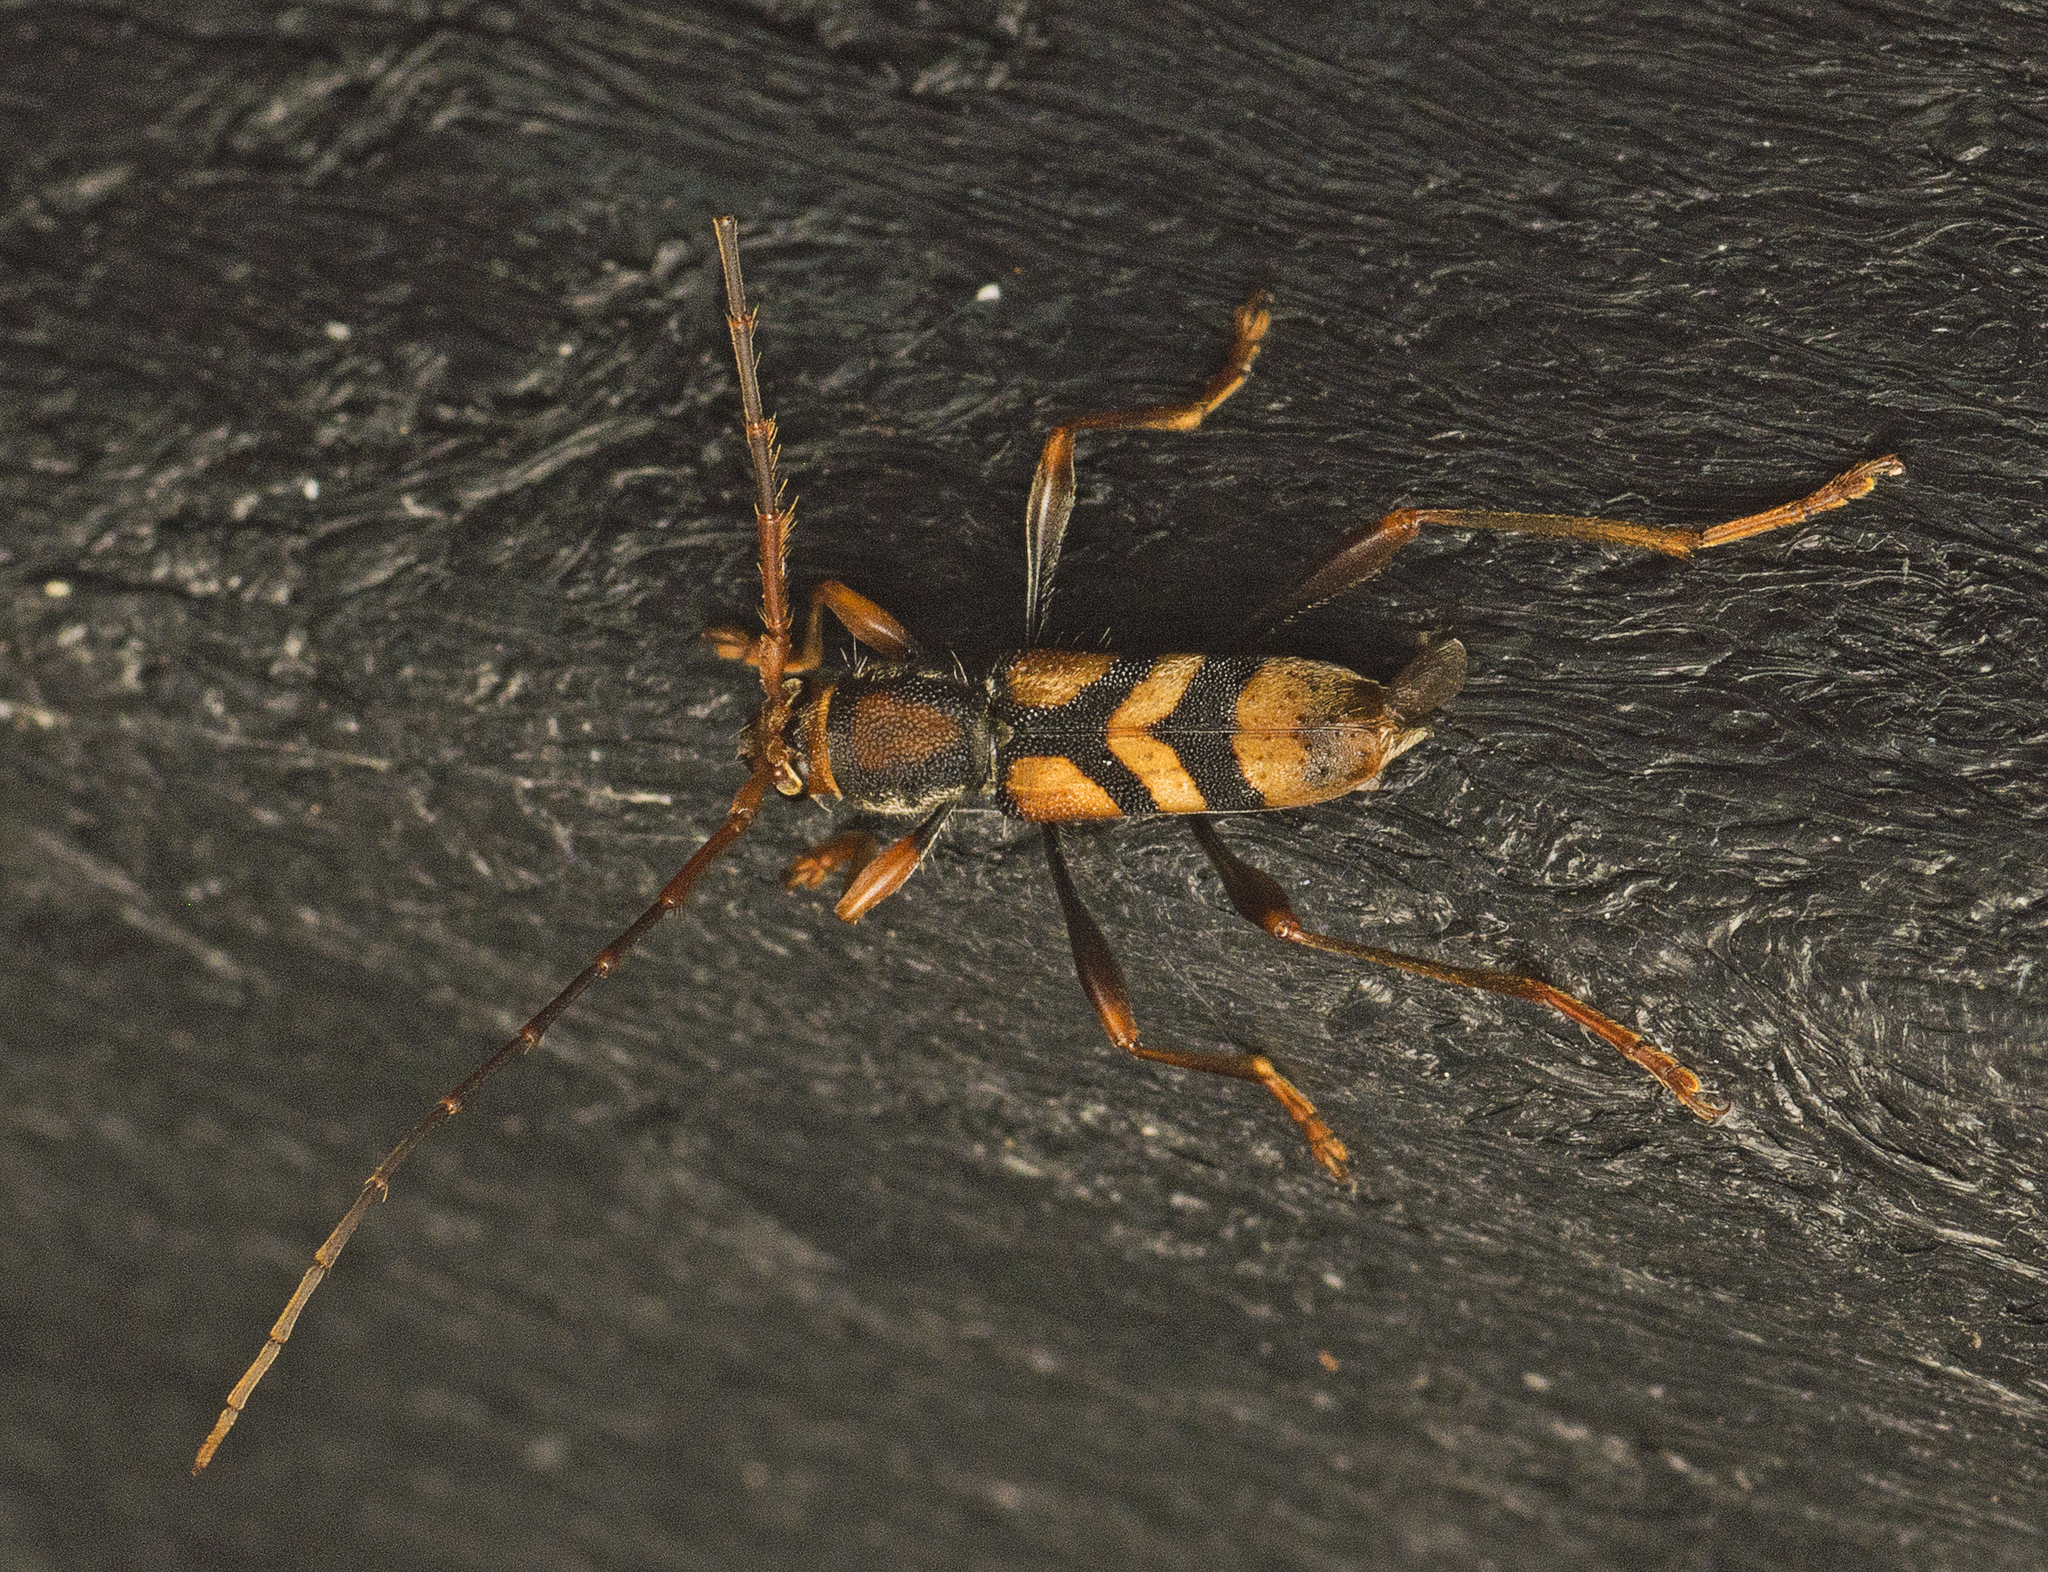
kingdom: Animalia
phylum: Arthropoda
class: Insecta
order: Coleoptera
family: Cerambycidae
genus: Aridaeus
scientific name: Aridaeus thoracicus
